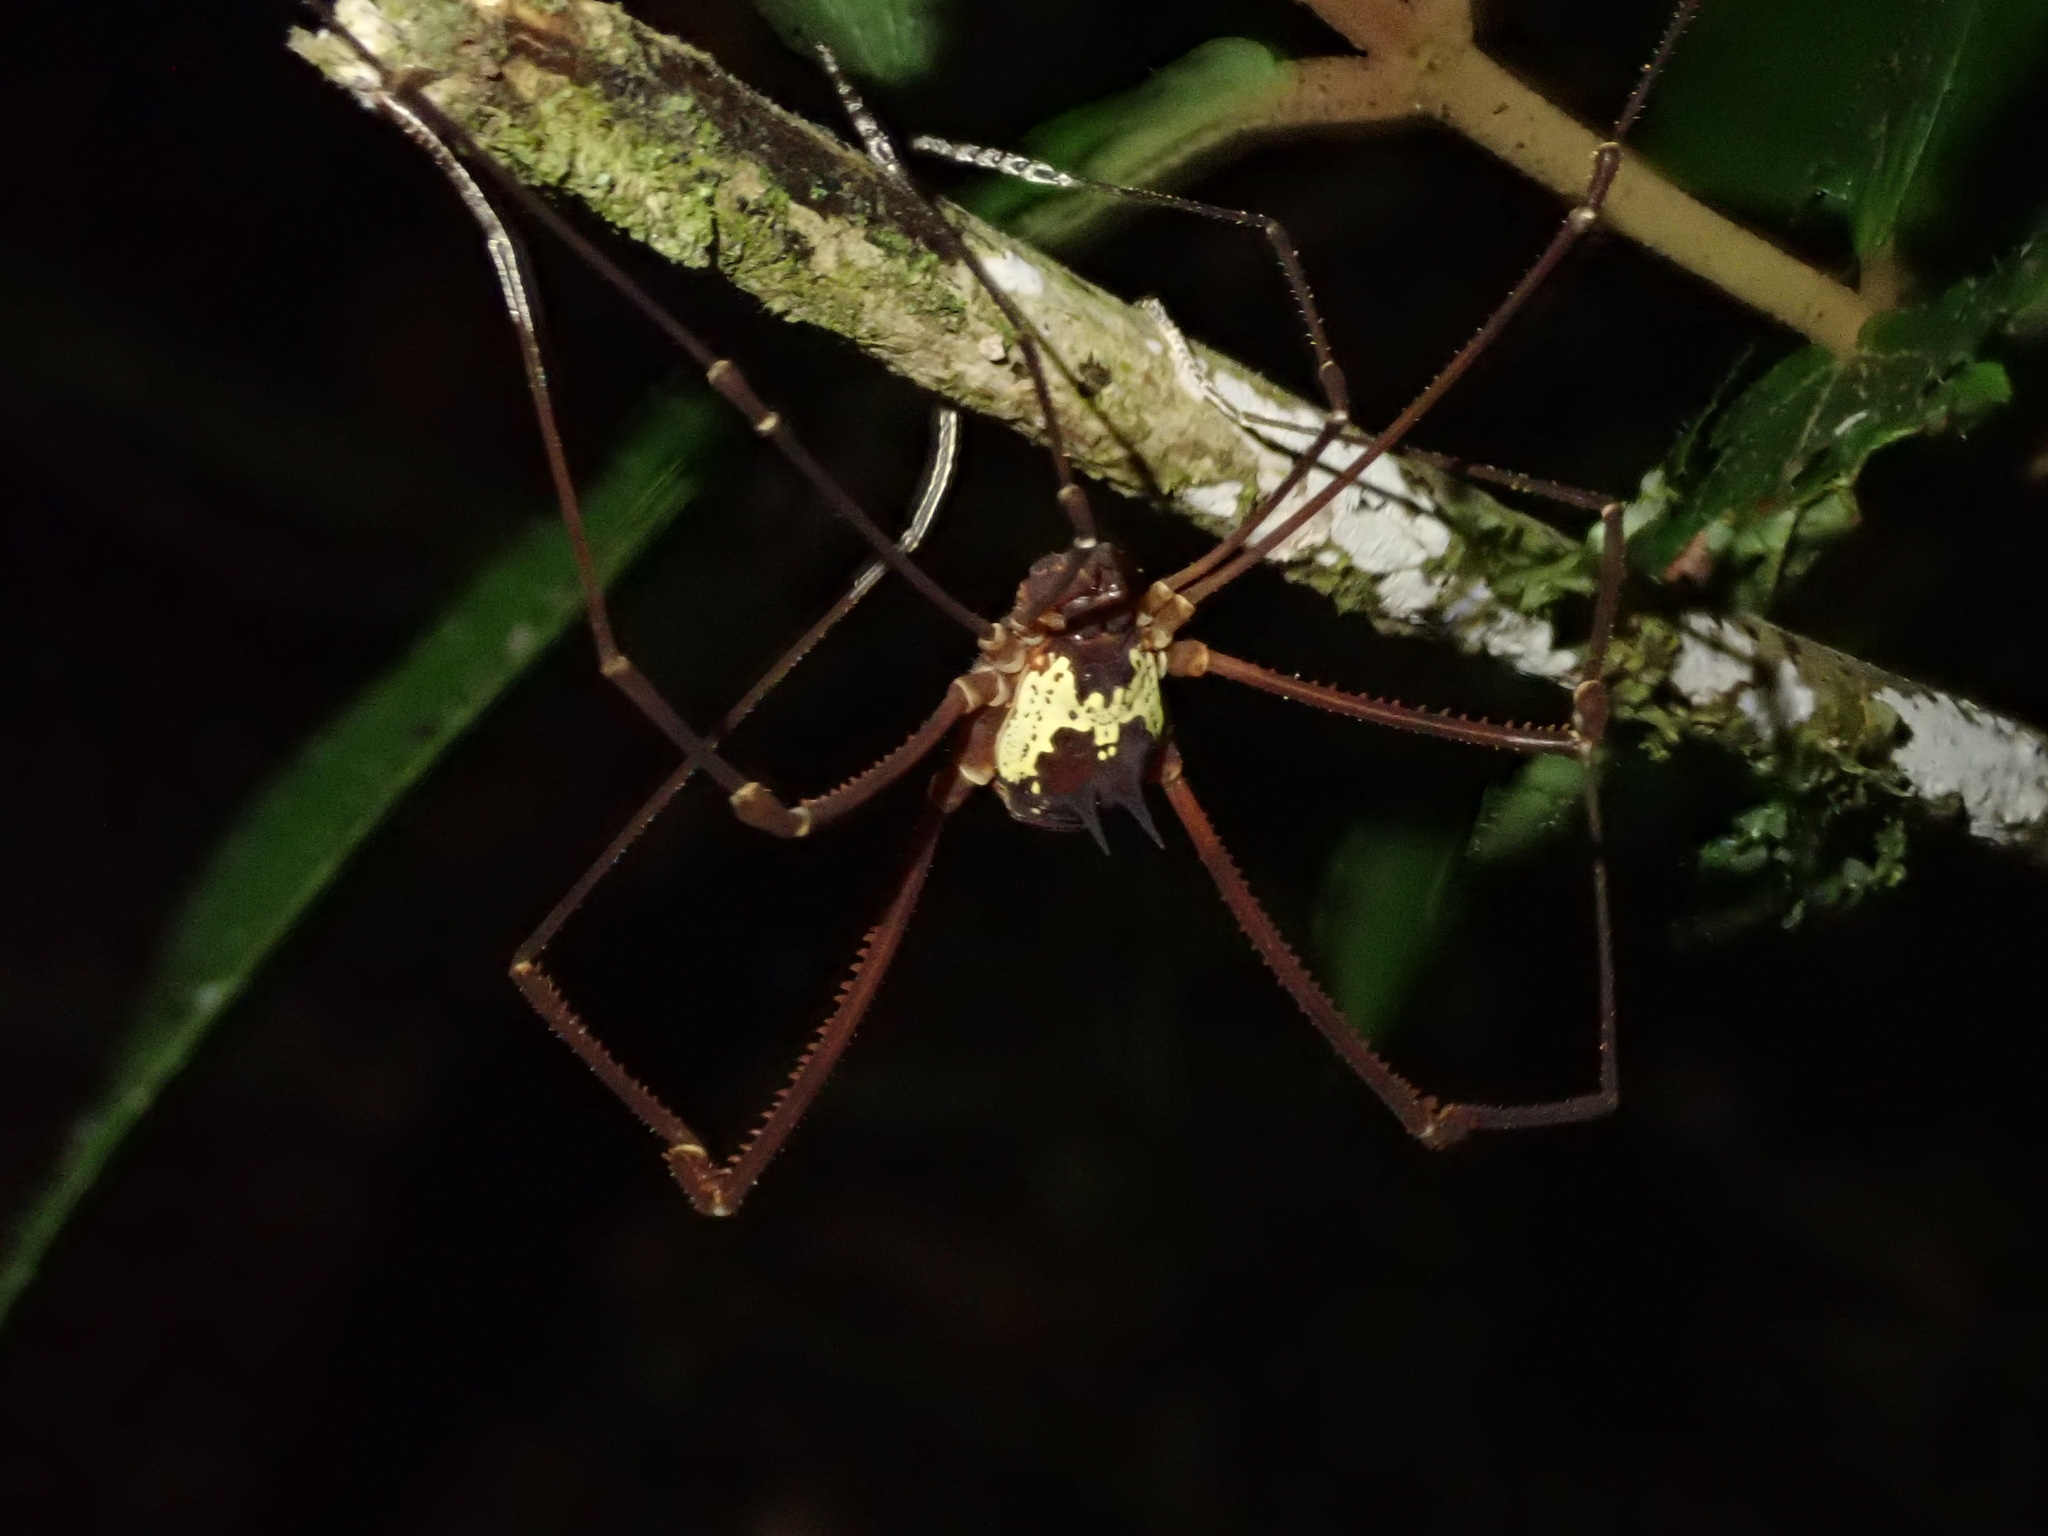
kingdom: Animalia
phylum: Arthropoda
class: Arachnida
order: Opiliones
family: Cosmetidae
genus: Meterginus
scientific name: Meterginus serratus
